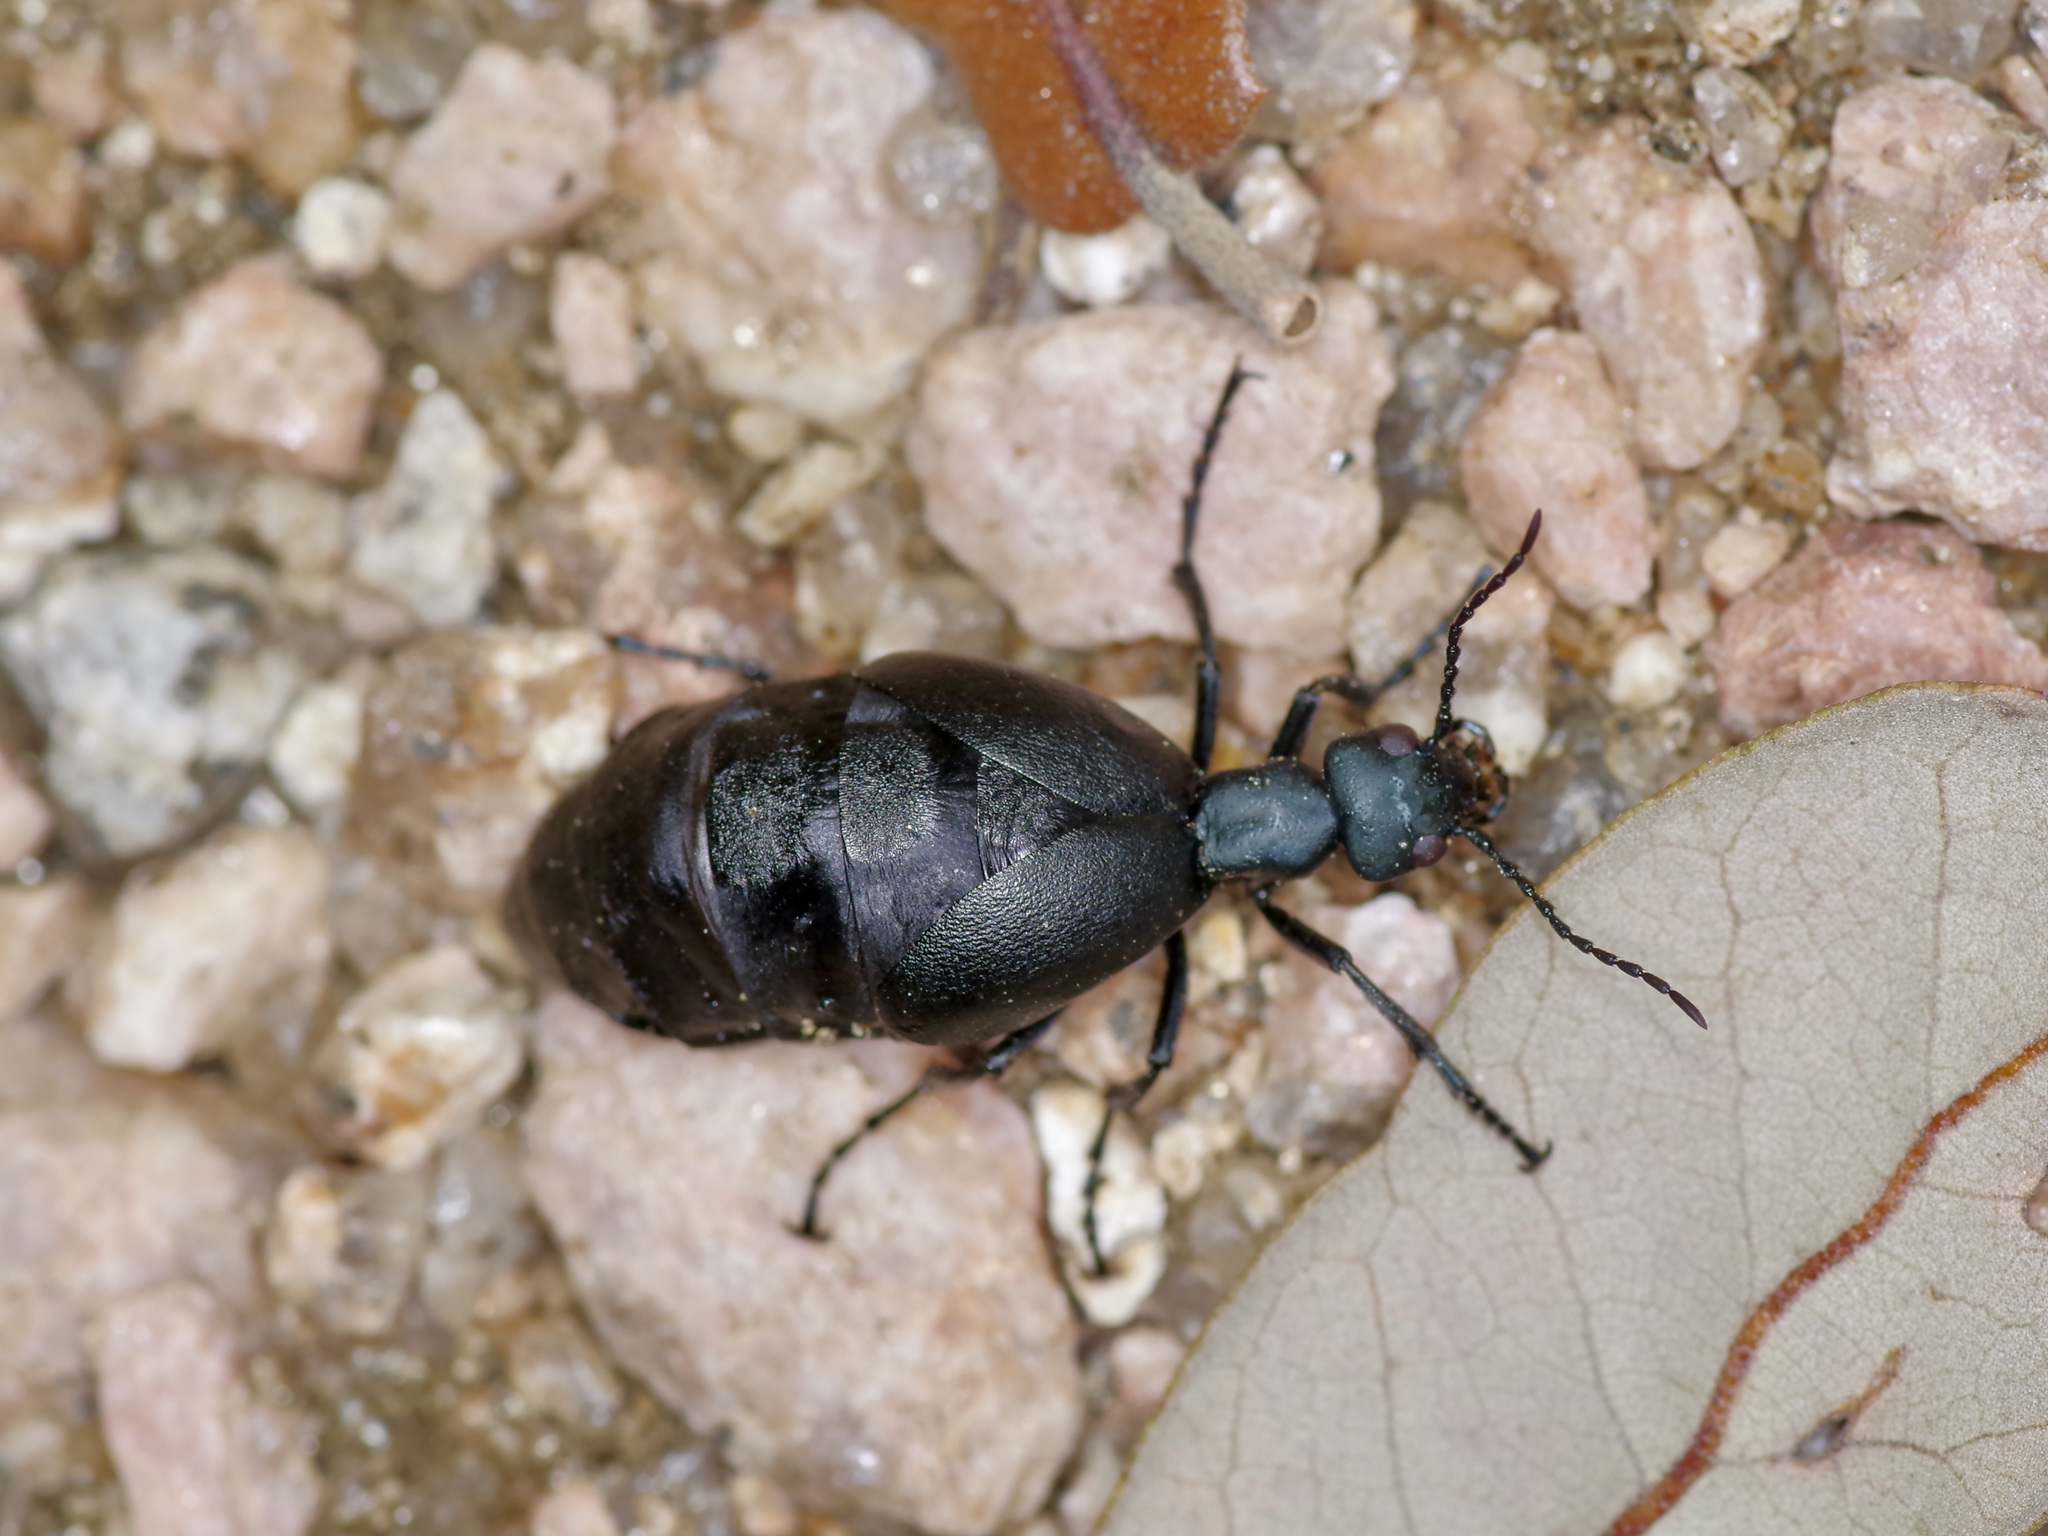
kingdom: Animalia
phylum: Arthropoda
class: Insecta
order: Coleoptera
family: Meloidae
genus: Meloe
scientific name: Meloe americanus
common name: Buttercup oil beetle
